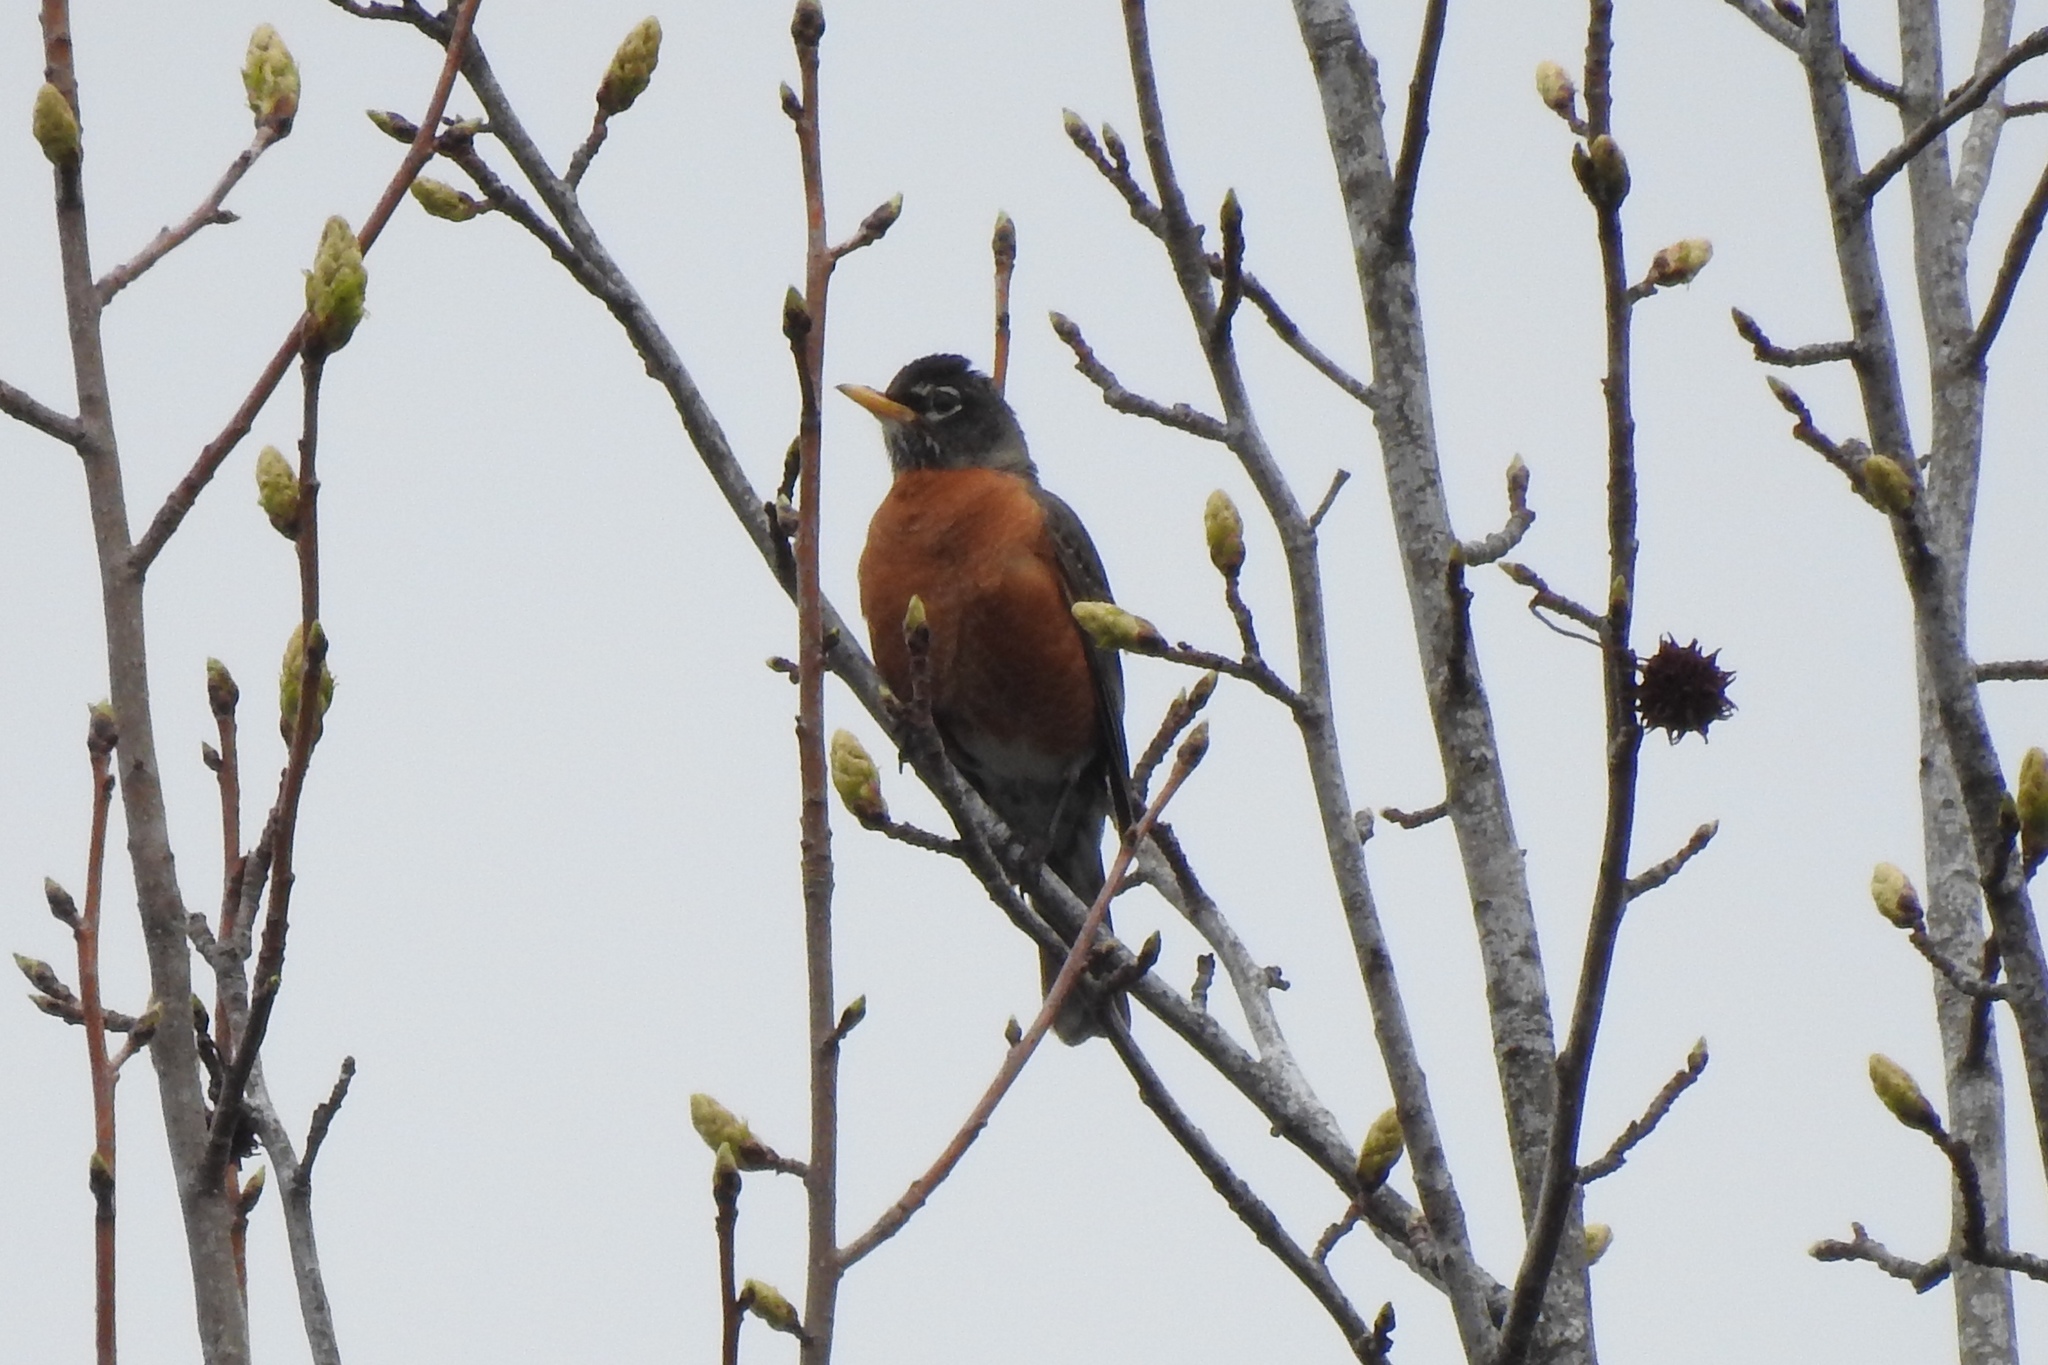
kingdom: Animalia
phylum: Chordata
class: Aves
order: Passeriformes
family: Turdidae
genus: Turdus
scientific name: Turdus migratorius
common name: American robin
